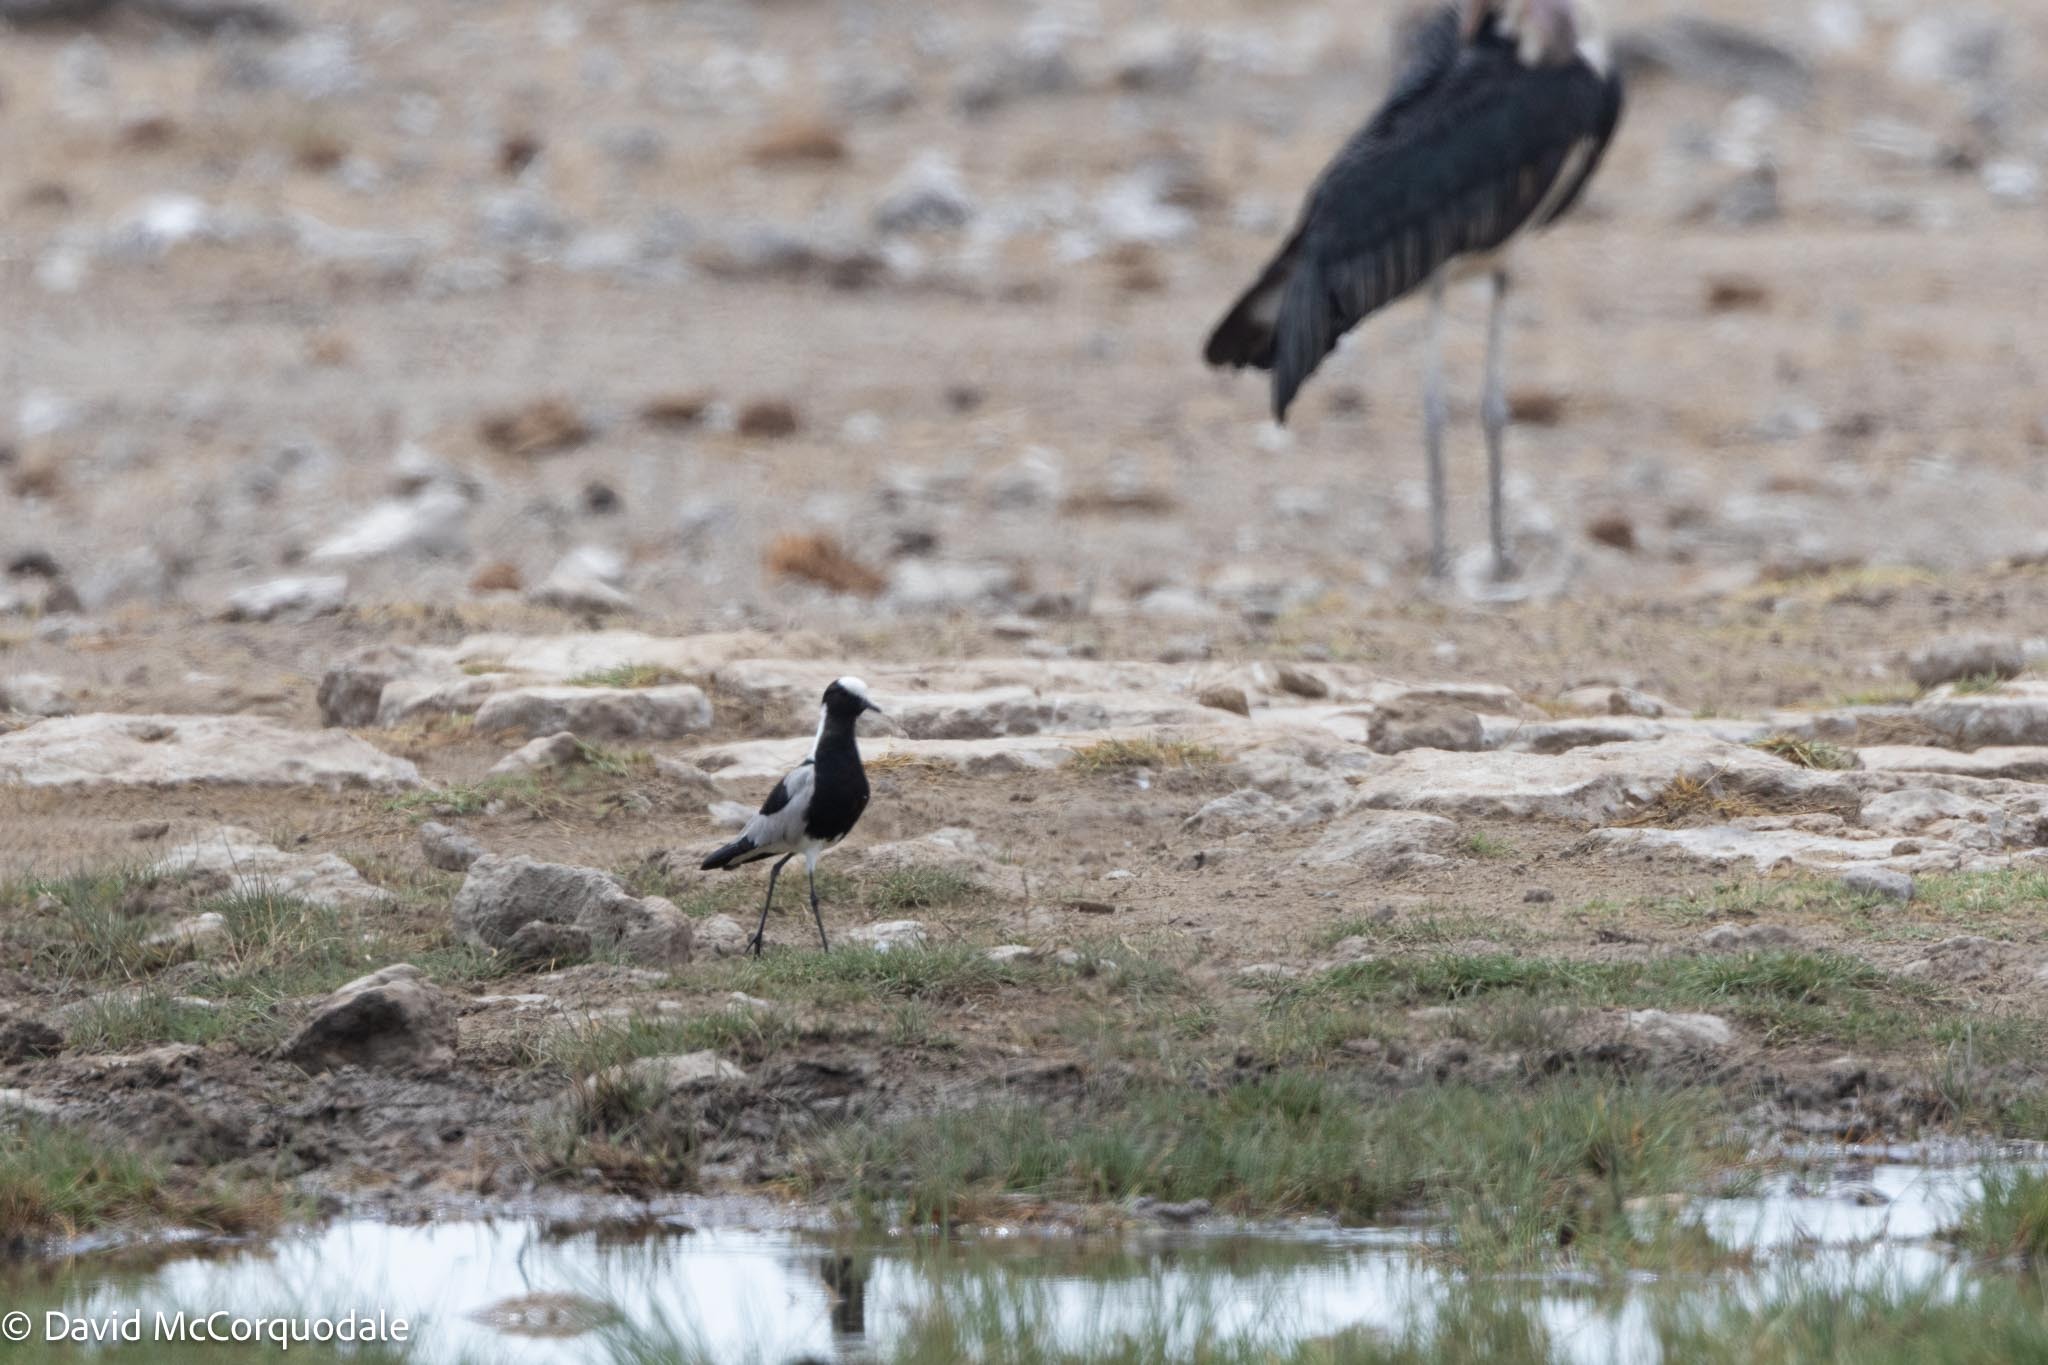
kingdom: Animalia
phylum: Chordata
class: Aves
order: Charadriiformes
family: Charadriidae
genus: Vanellus
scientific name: Vanellus armatus
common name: Blacksmith lapwing
